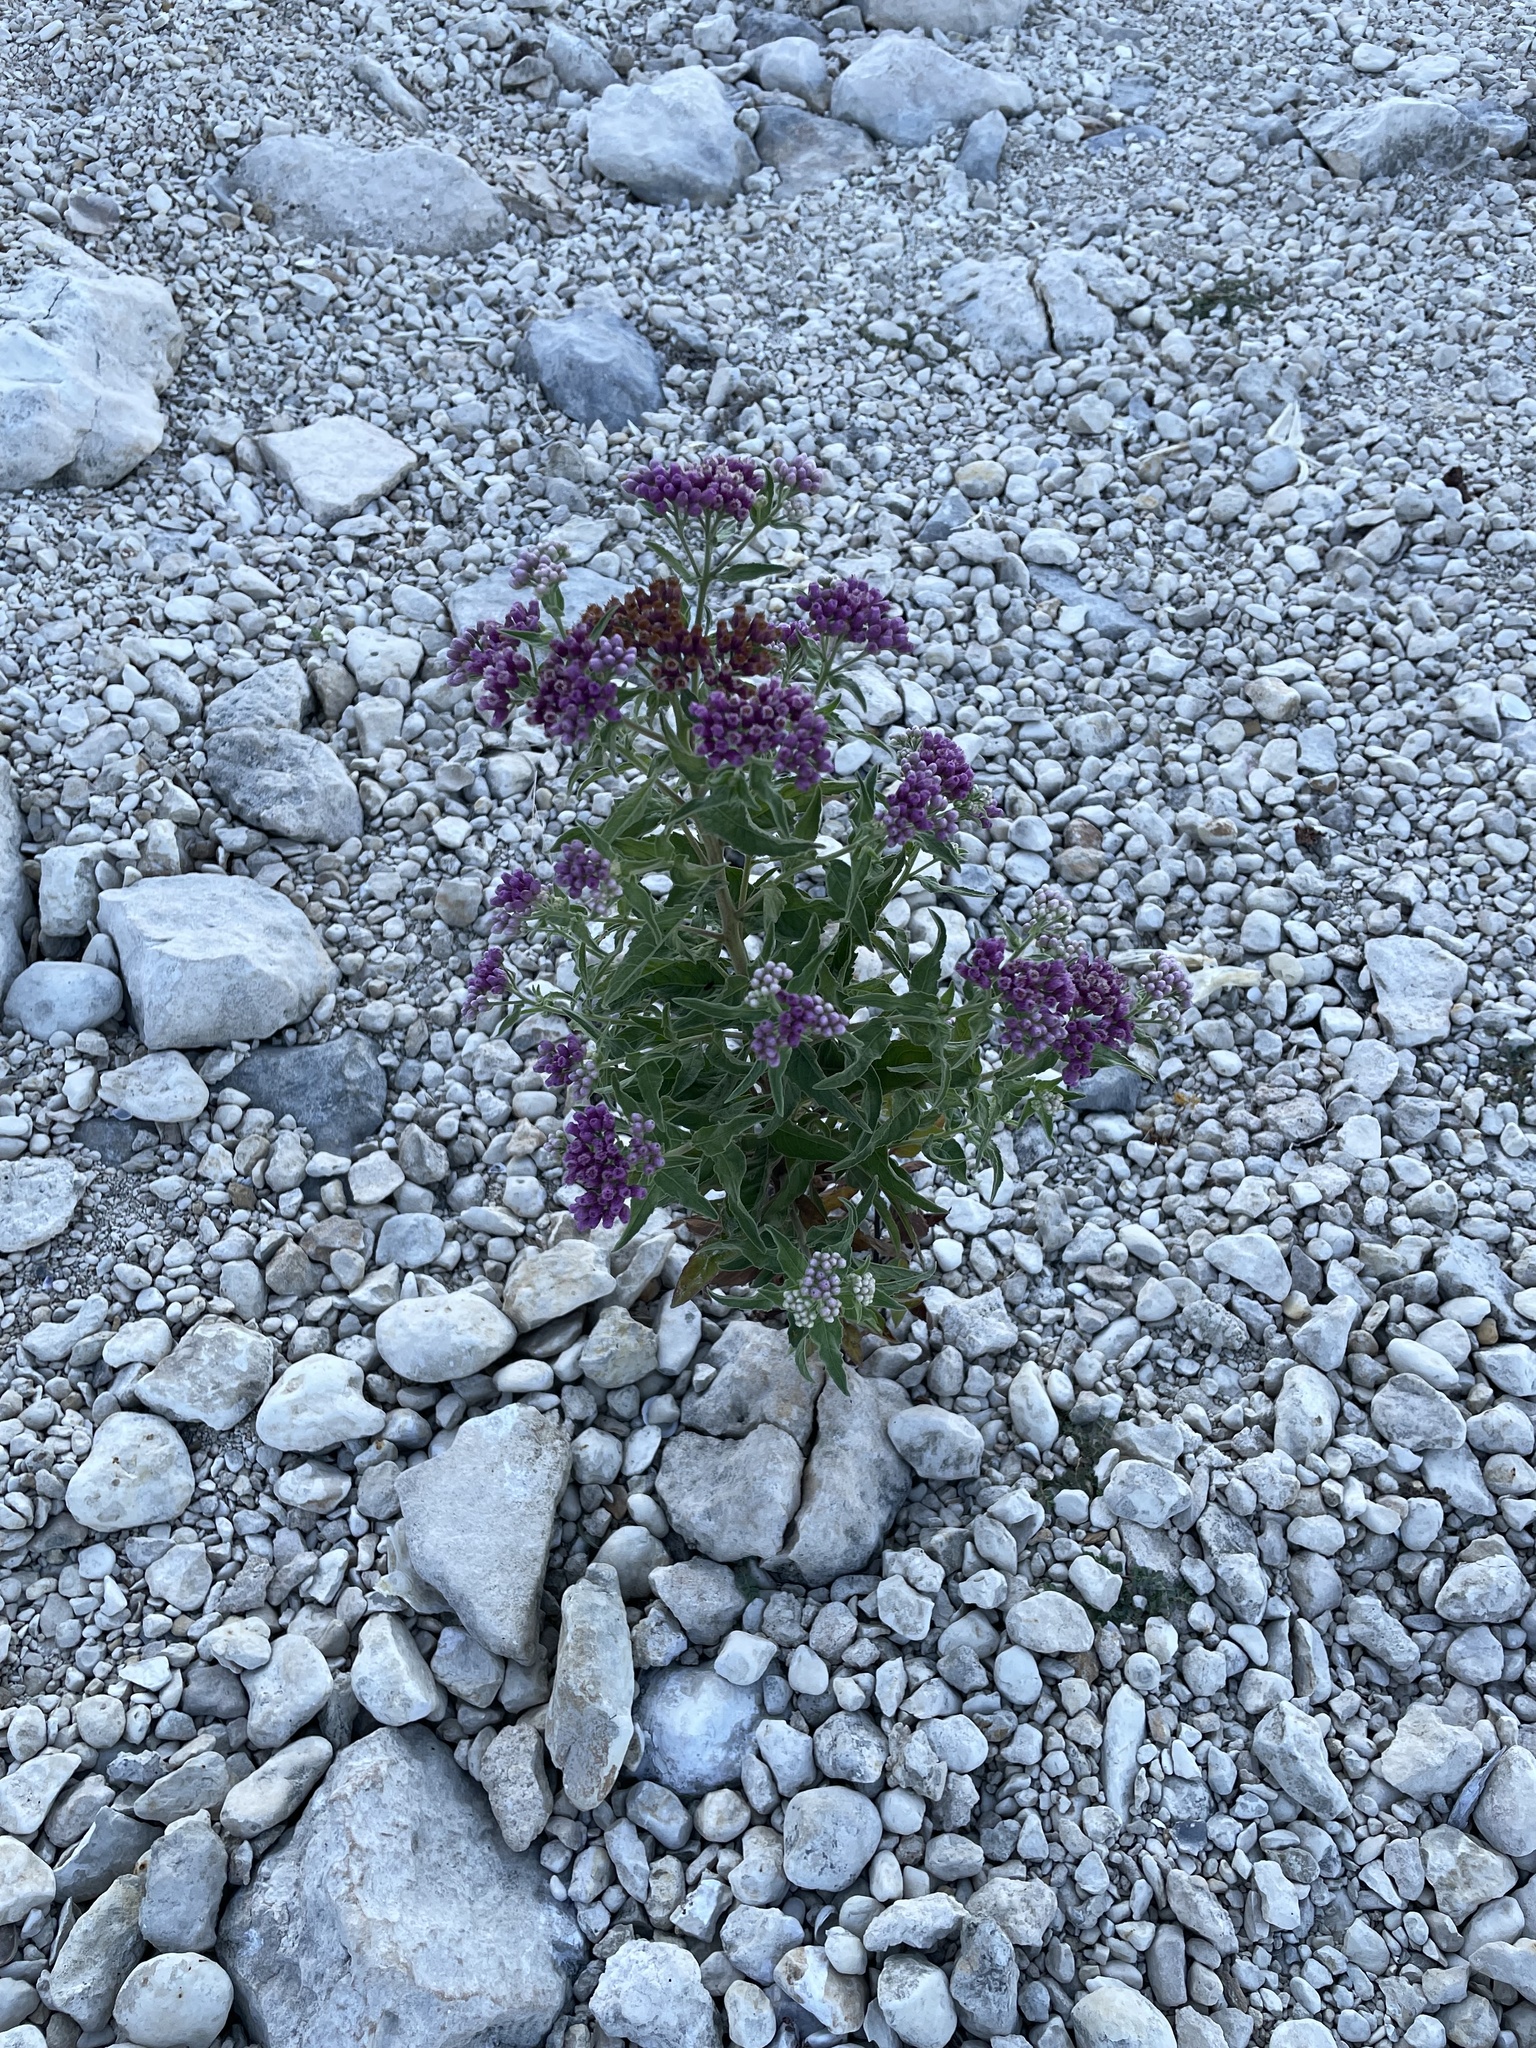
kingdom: Plantae
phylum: Tracheophyta
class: Magnoliopsida
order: Asterales
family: Asteraceae
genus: Pluchea
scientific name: Pluchea odorata
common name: Saltmarsh fleabane
